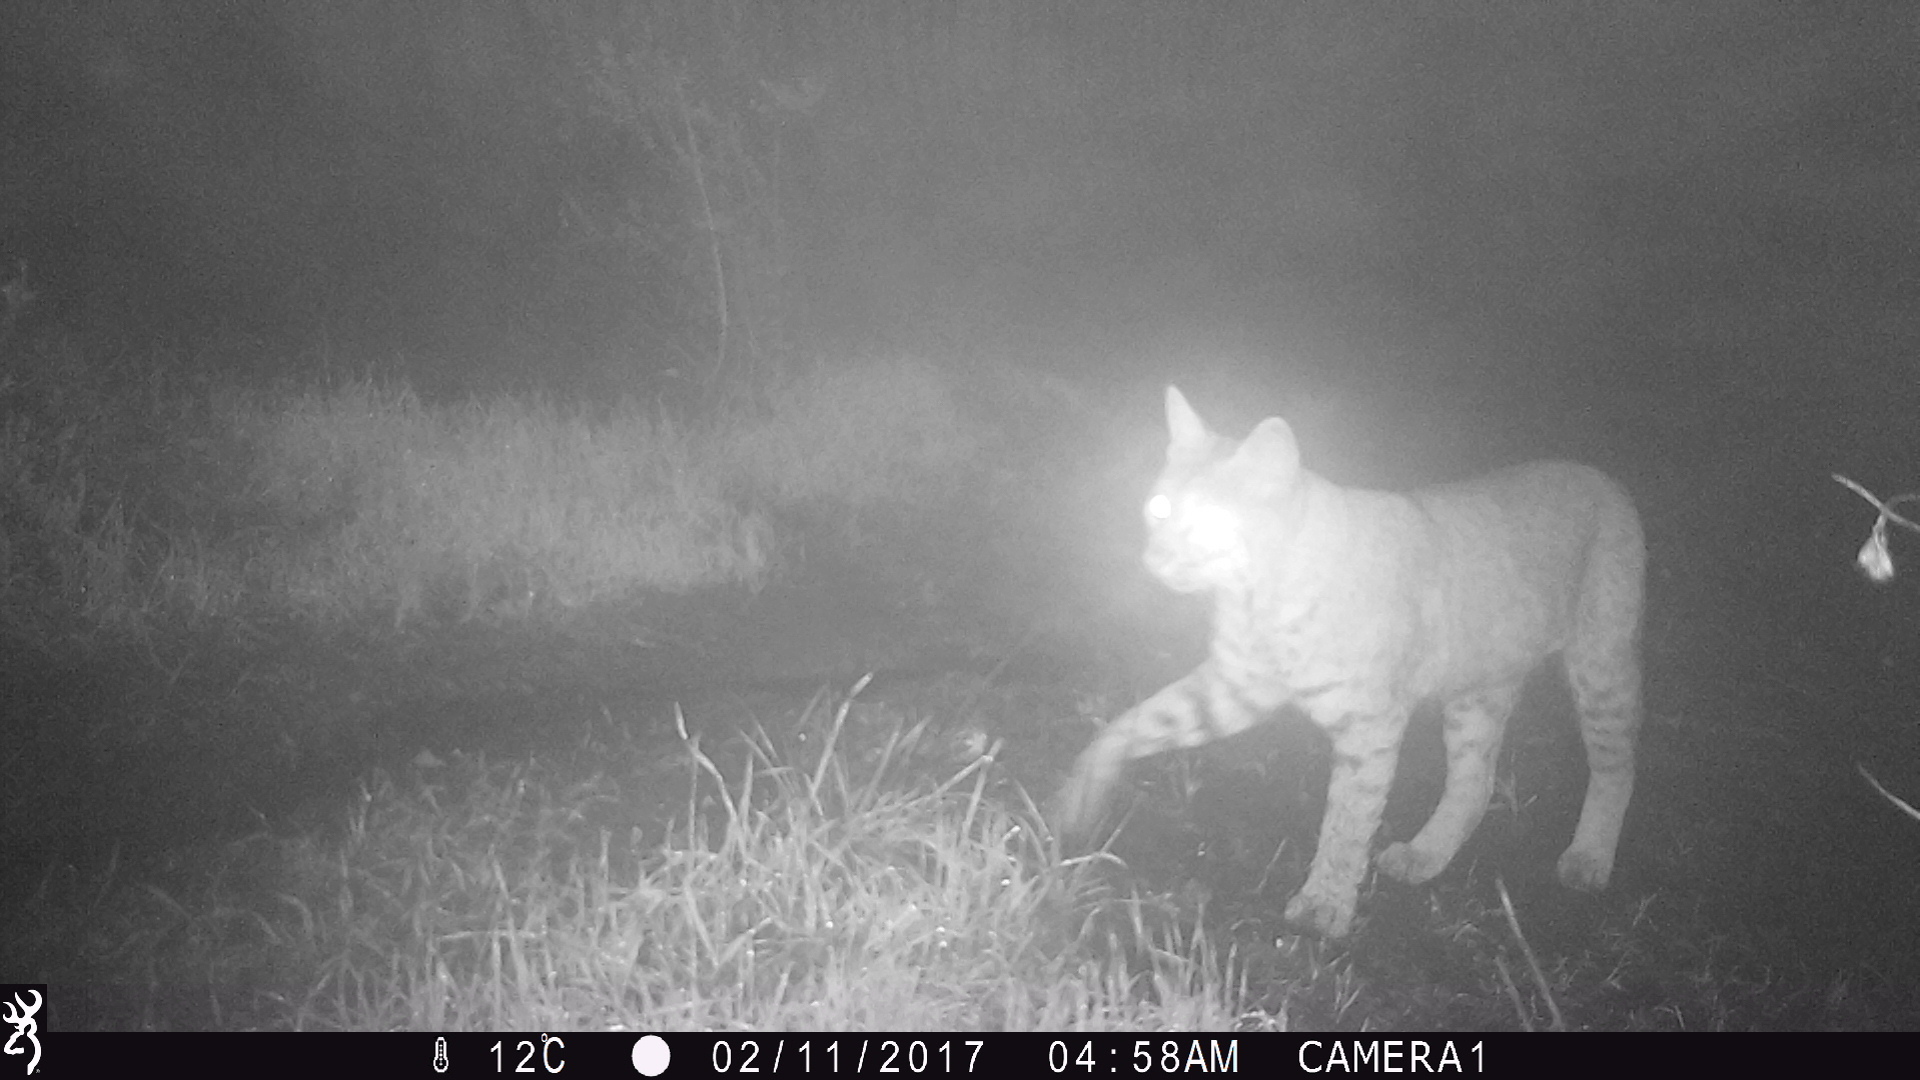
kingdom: Animalia
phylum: Chordata
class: Mammalia
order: Carnivora
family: Felidae
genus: Lynx
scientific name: Lynx rufus
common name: Bobcat
